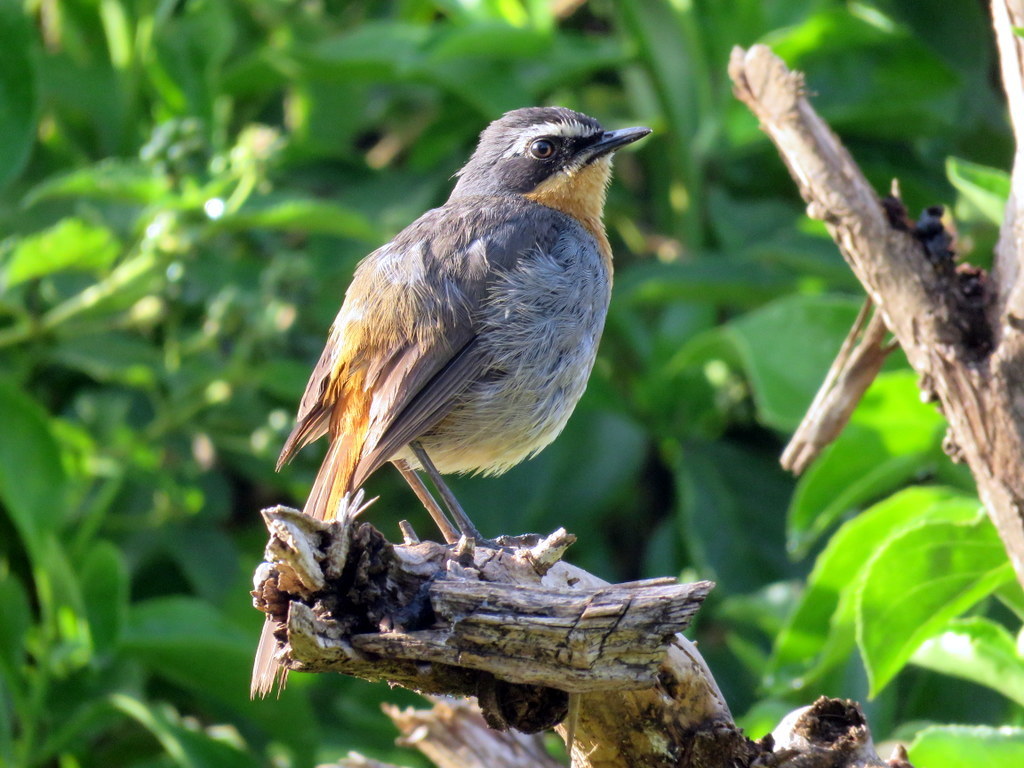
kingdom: Animalia
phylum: Chordata
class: Aves
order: Passeriformes
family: Muscicapidae
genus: Cossypha
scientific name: Cossypha caffra
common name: Cape robin-chat
